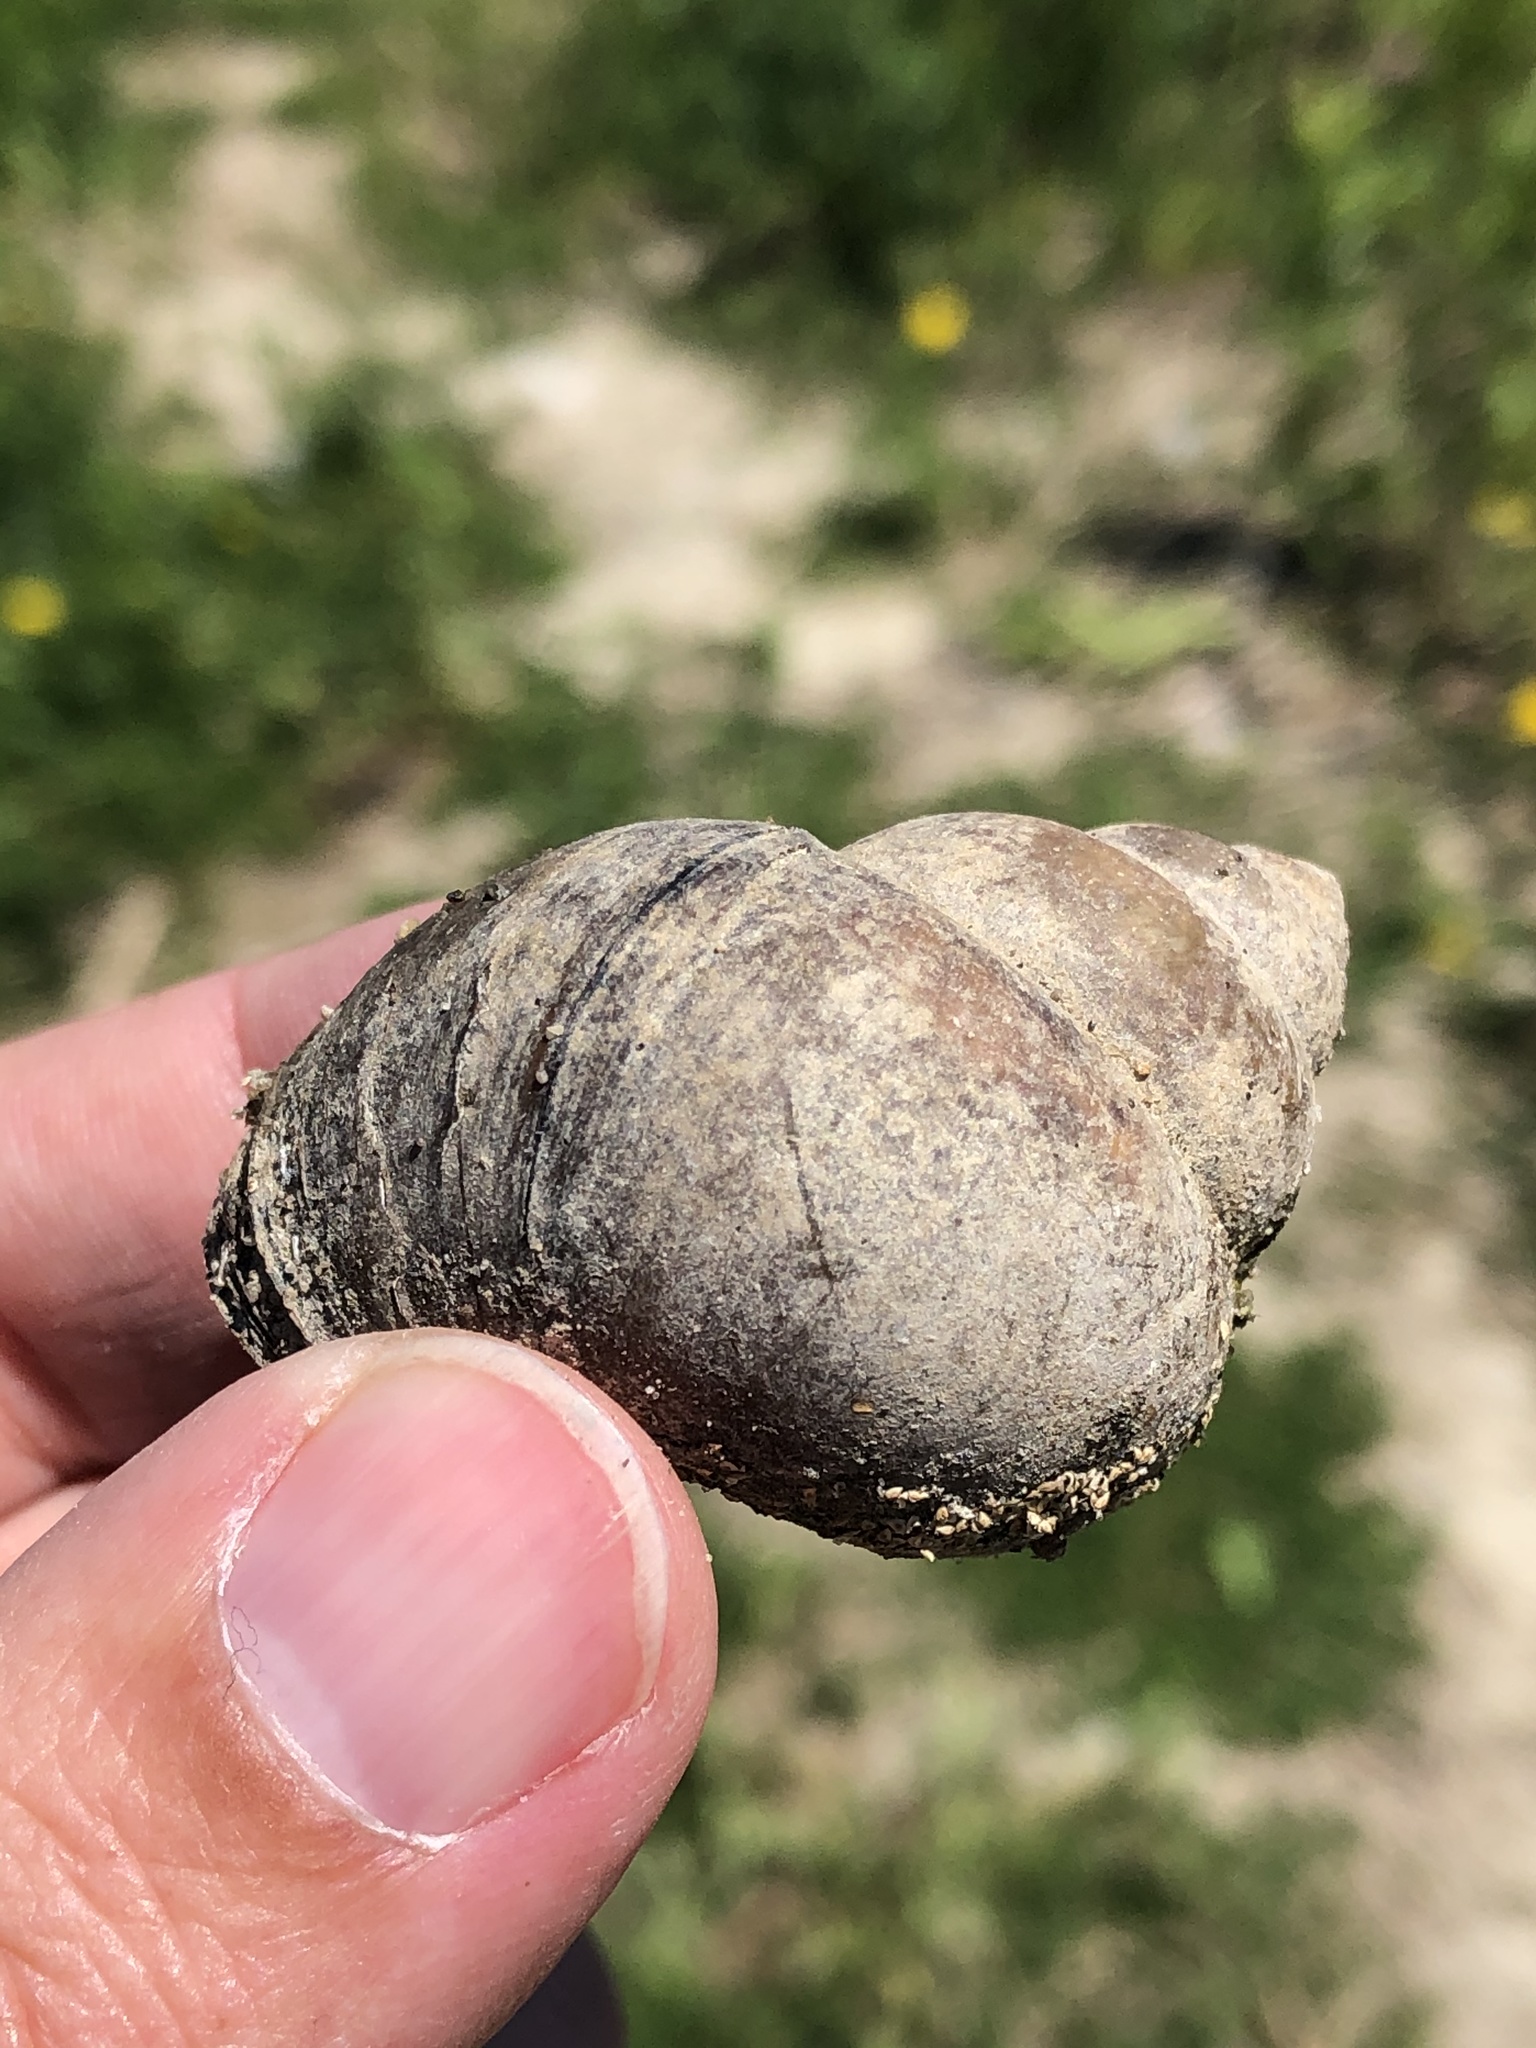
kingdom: Animalia
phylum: Mollusca
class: Gastropoda
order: Architaenioglossa
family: Viviparidae
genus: Cipangopaludina
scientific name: Cipangopaludina chinensis
